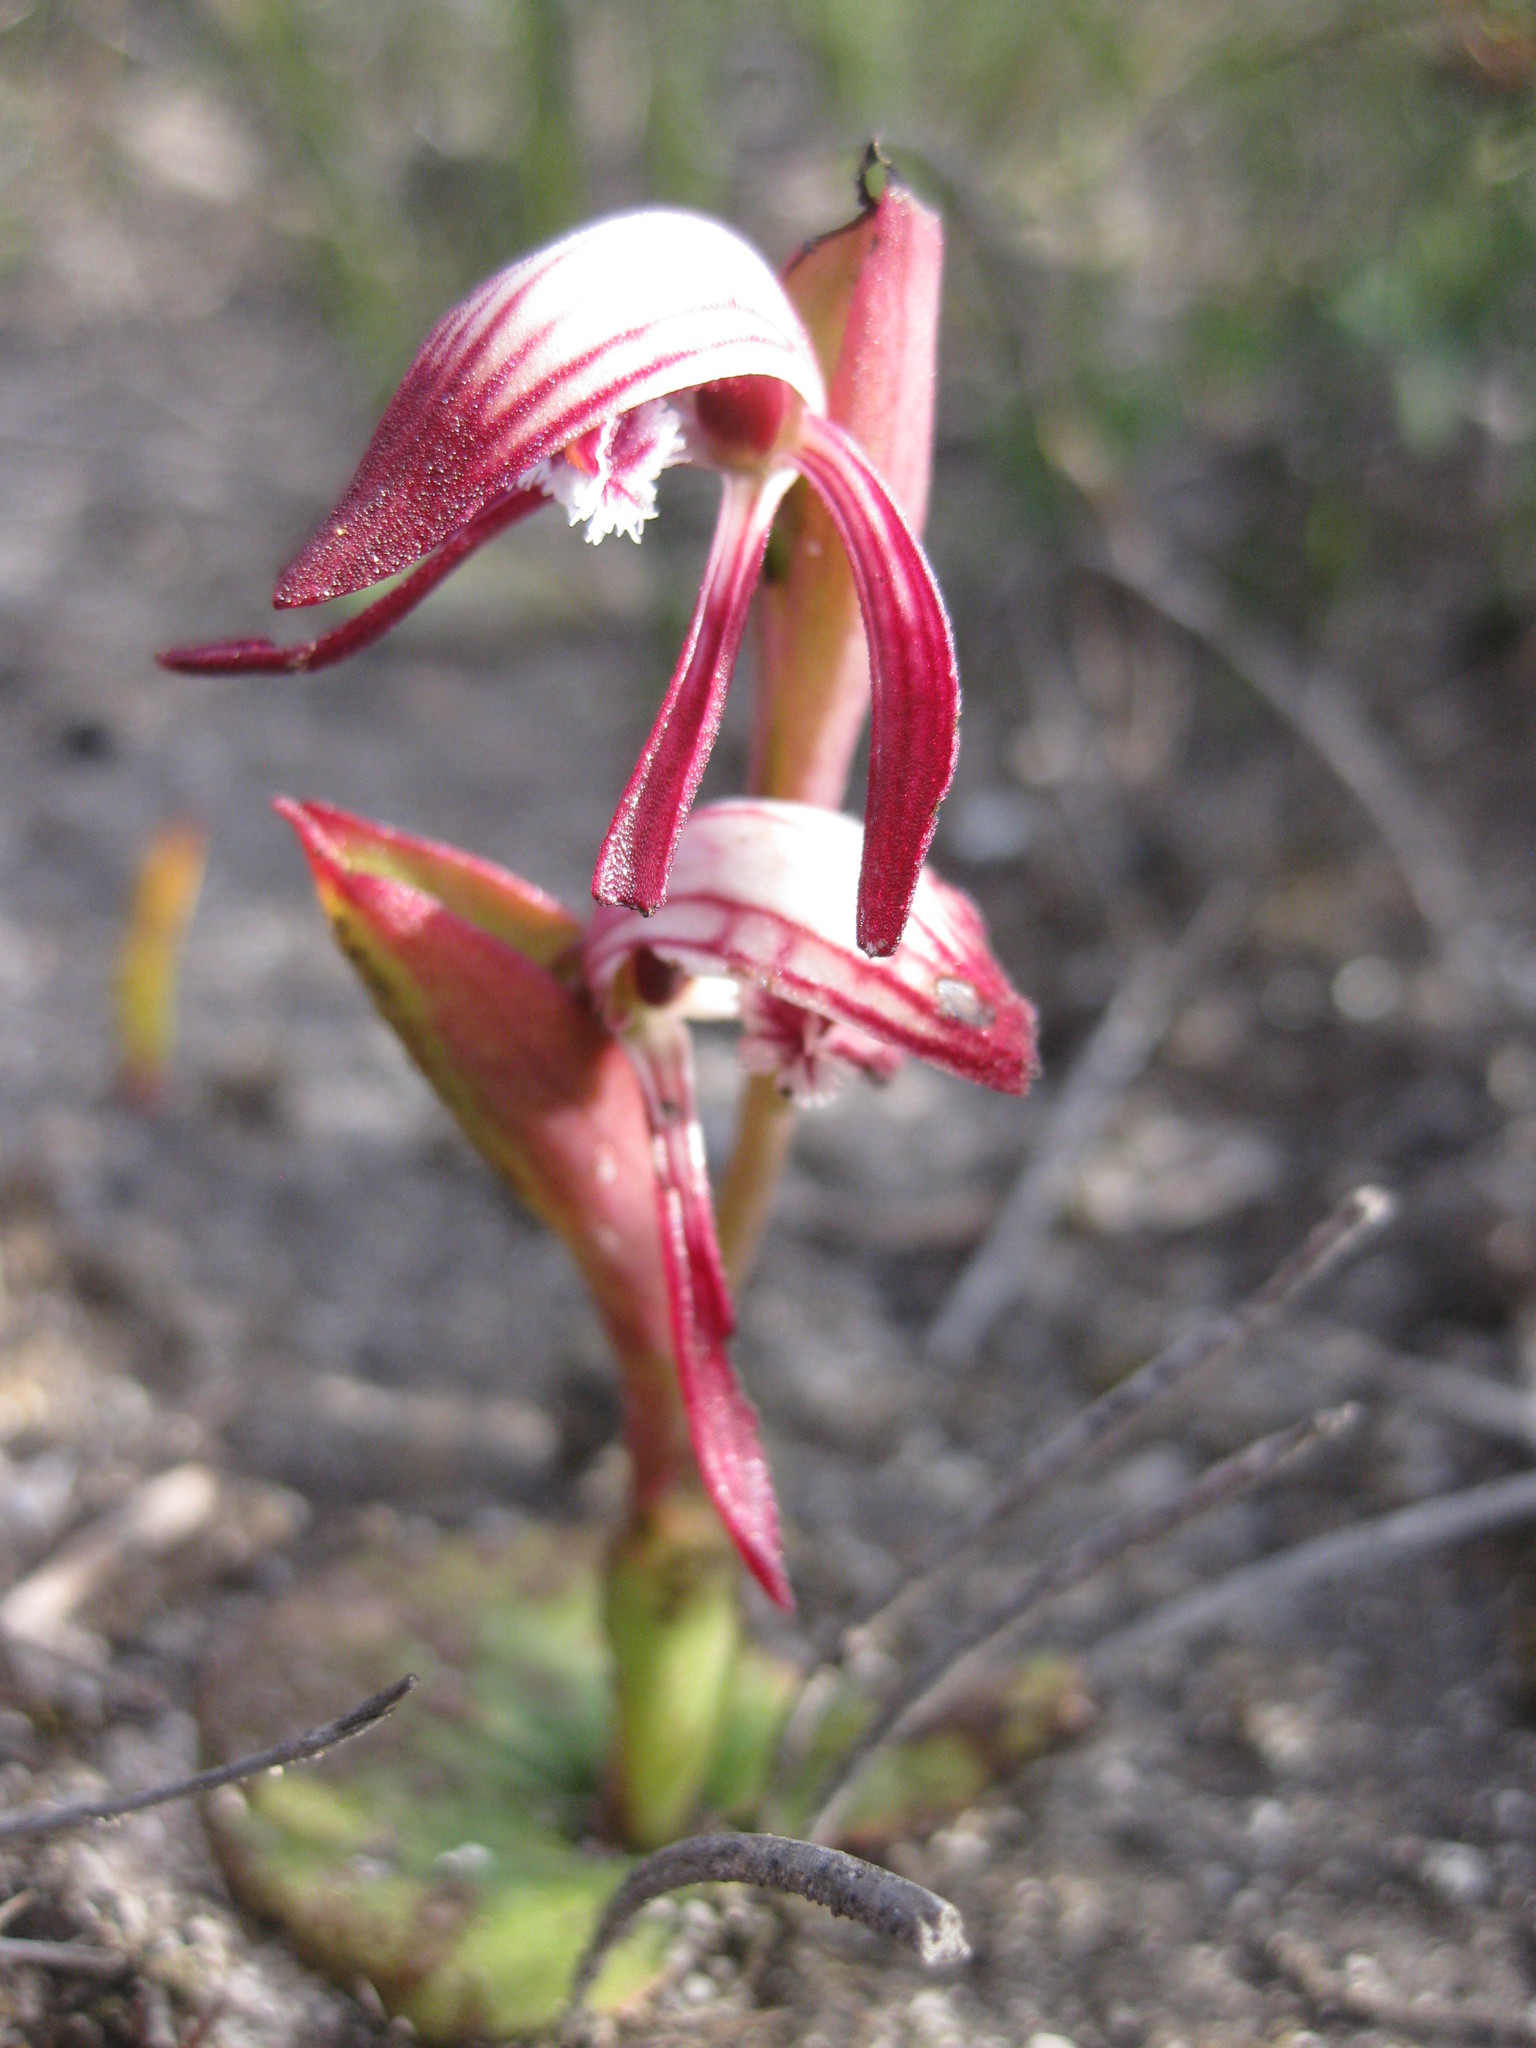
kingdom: Plantae
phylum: Tracheophyta
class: Liliopsida
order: Asparagales
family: Orchidaceae
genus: Pyrorchis
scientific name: Pyrorchis nigricans
